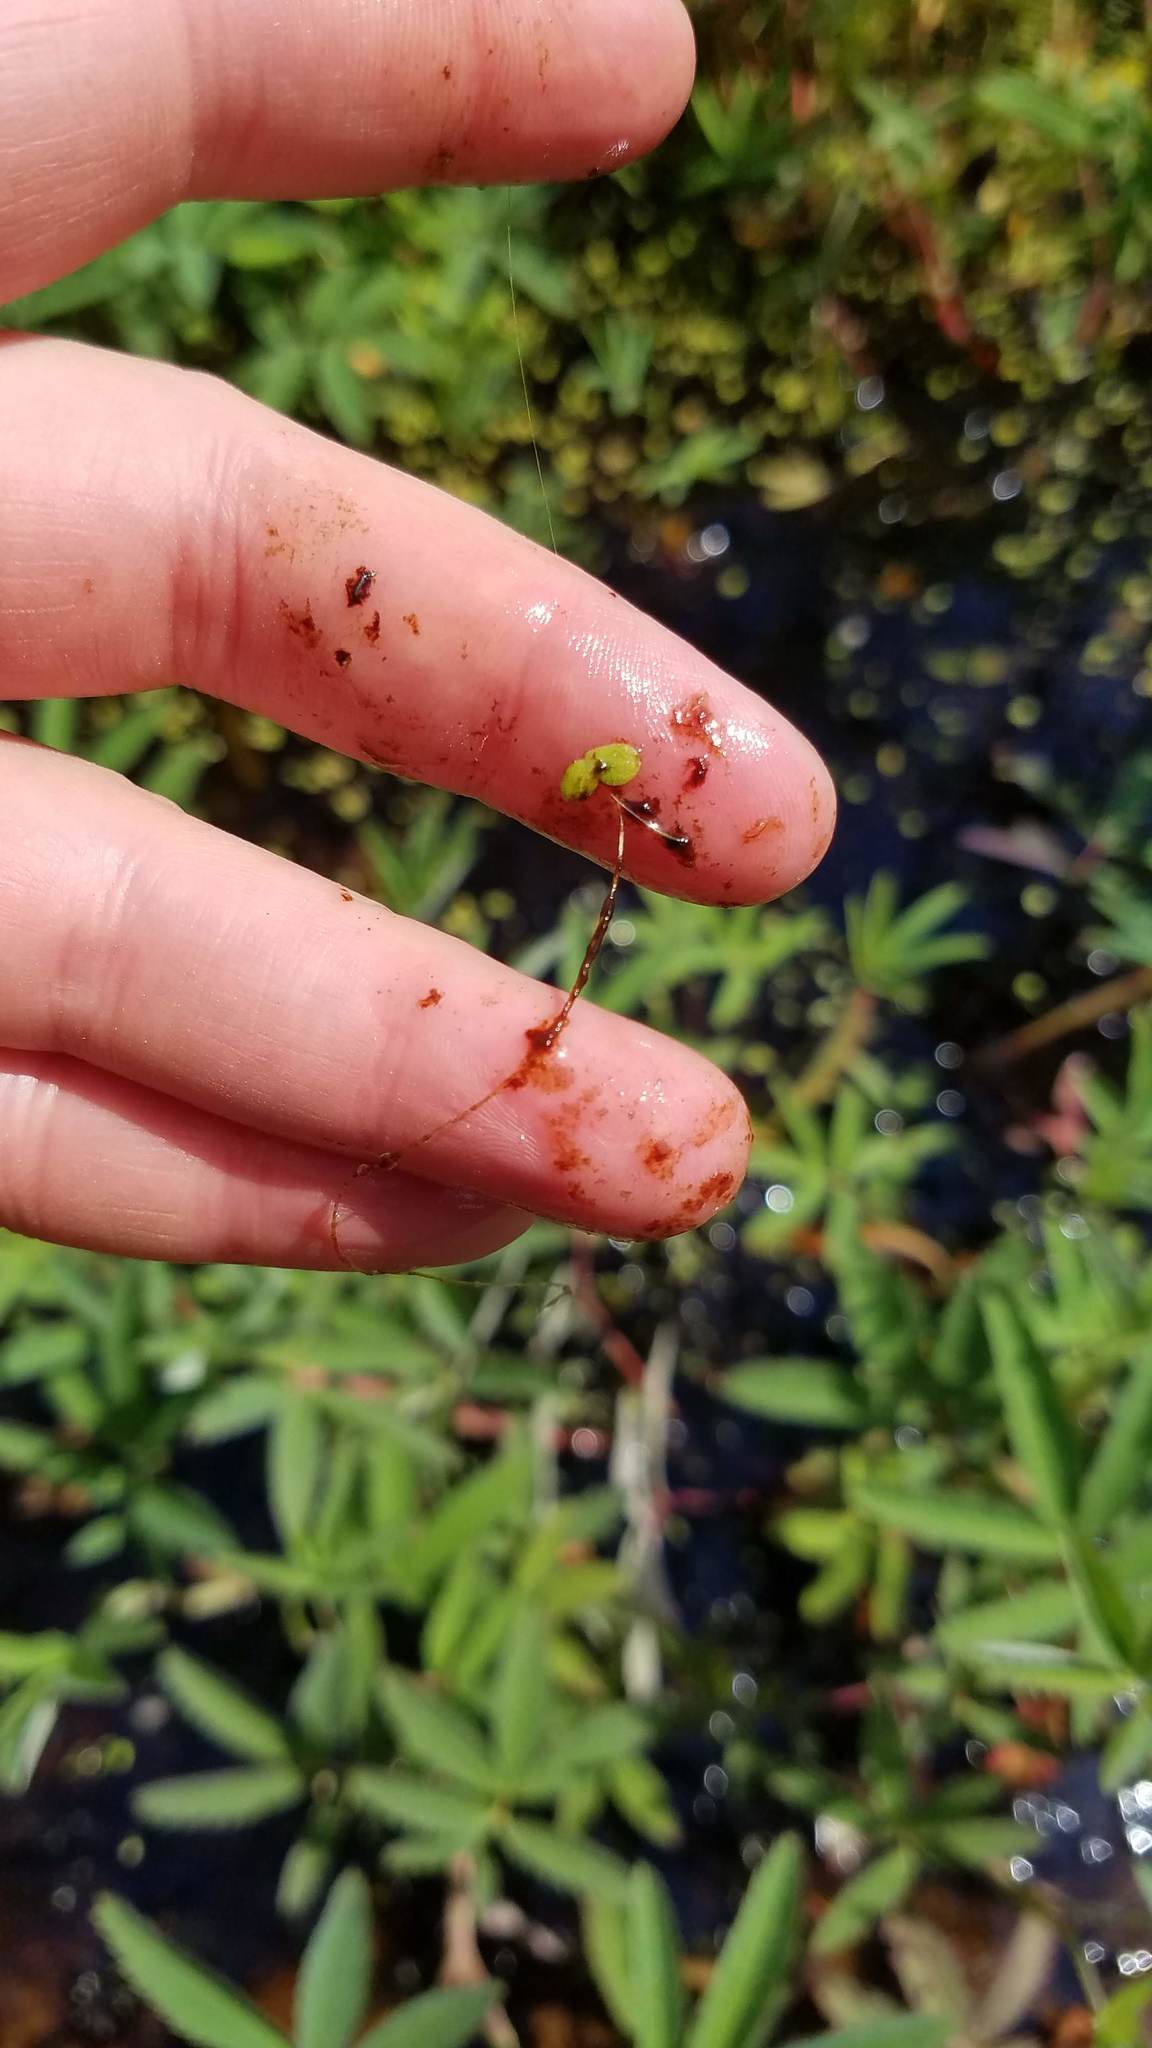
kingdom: Plantae
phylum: Tracheophyta
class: Liliopsida
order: Alismatales
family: Araceae
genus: Lemna
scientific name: Lemna minor
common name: Common duckweed
